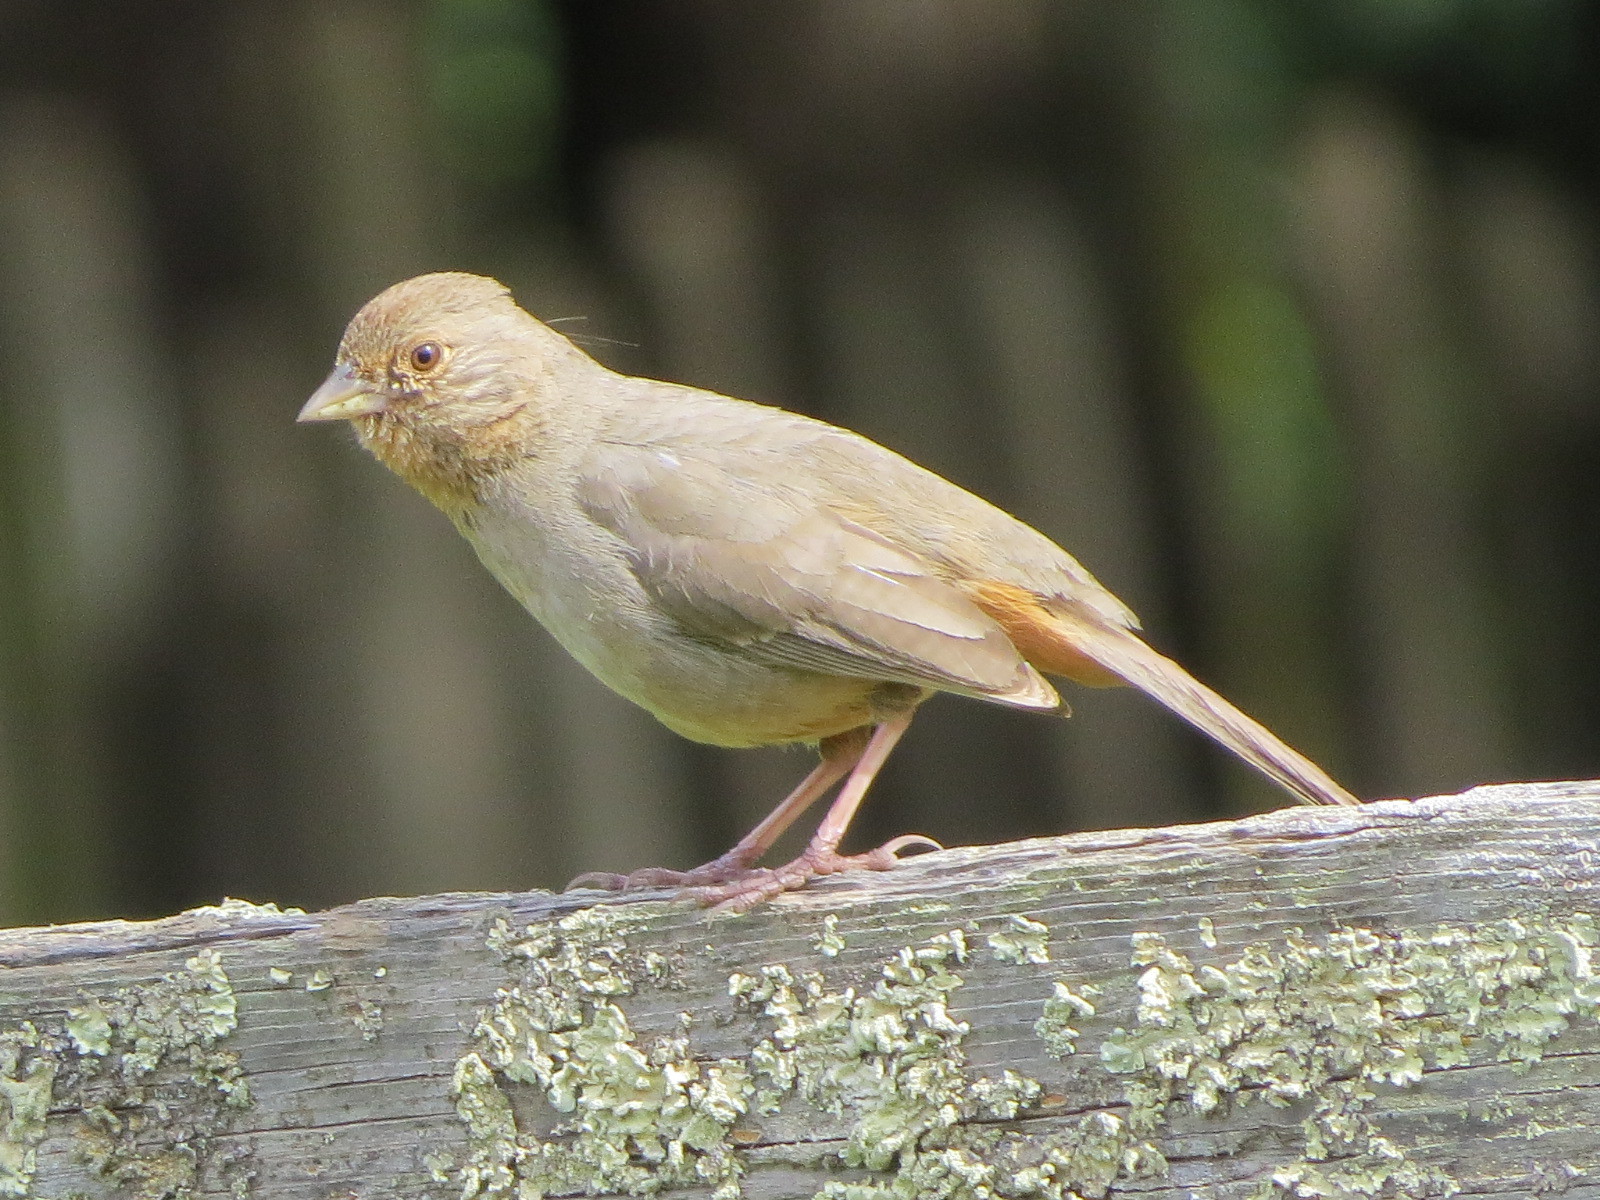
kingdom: Animalia
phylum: Chordata
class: Aves
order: Passeriformes
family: Passerellidae
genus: Melozone
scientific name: Melozone crissalis
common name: California towhee
